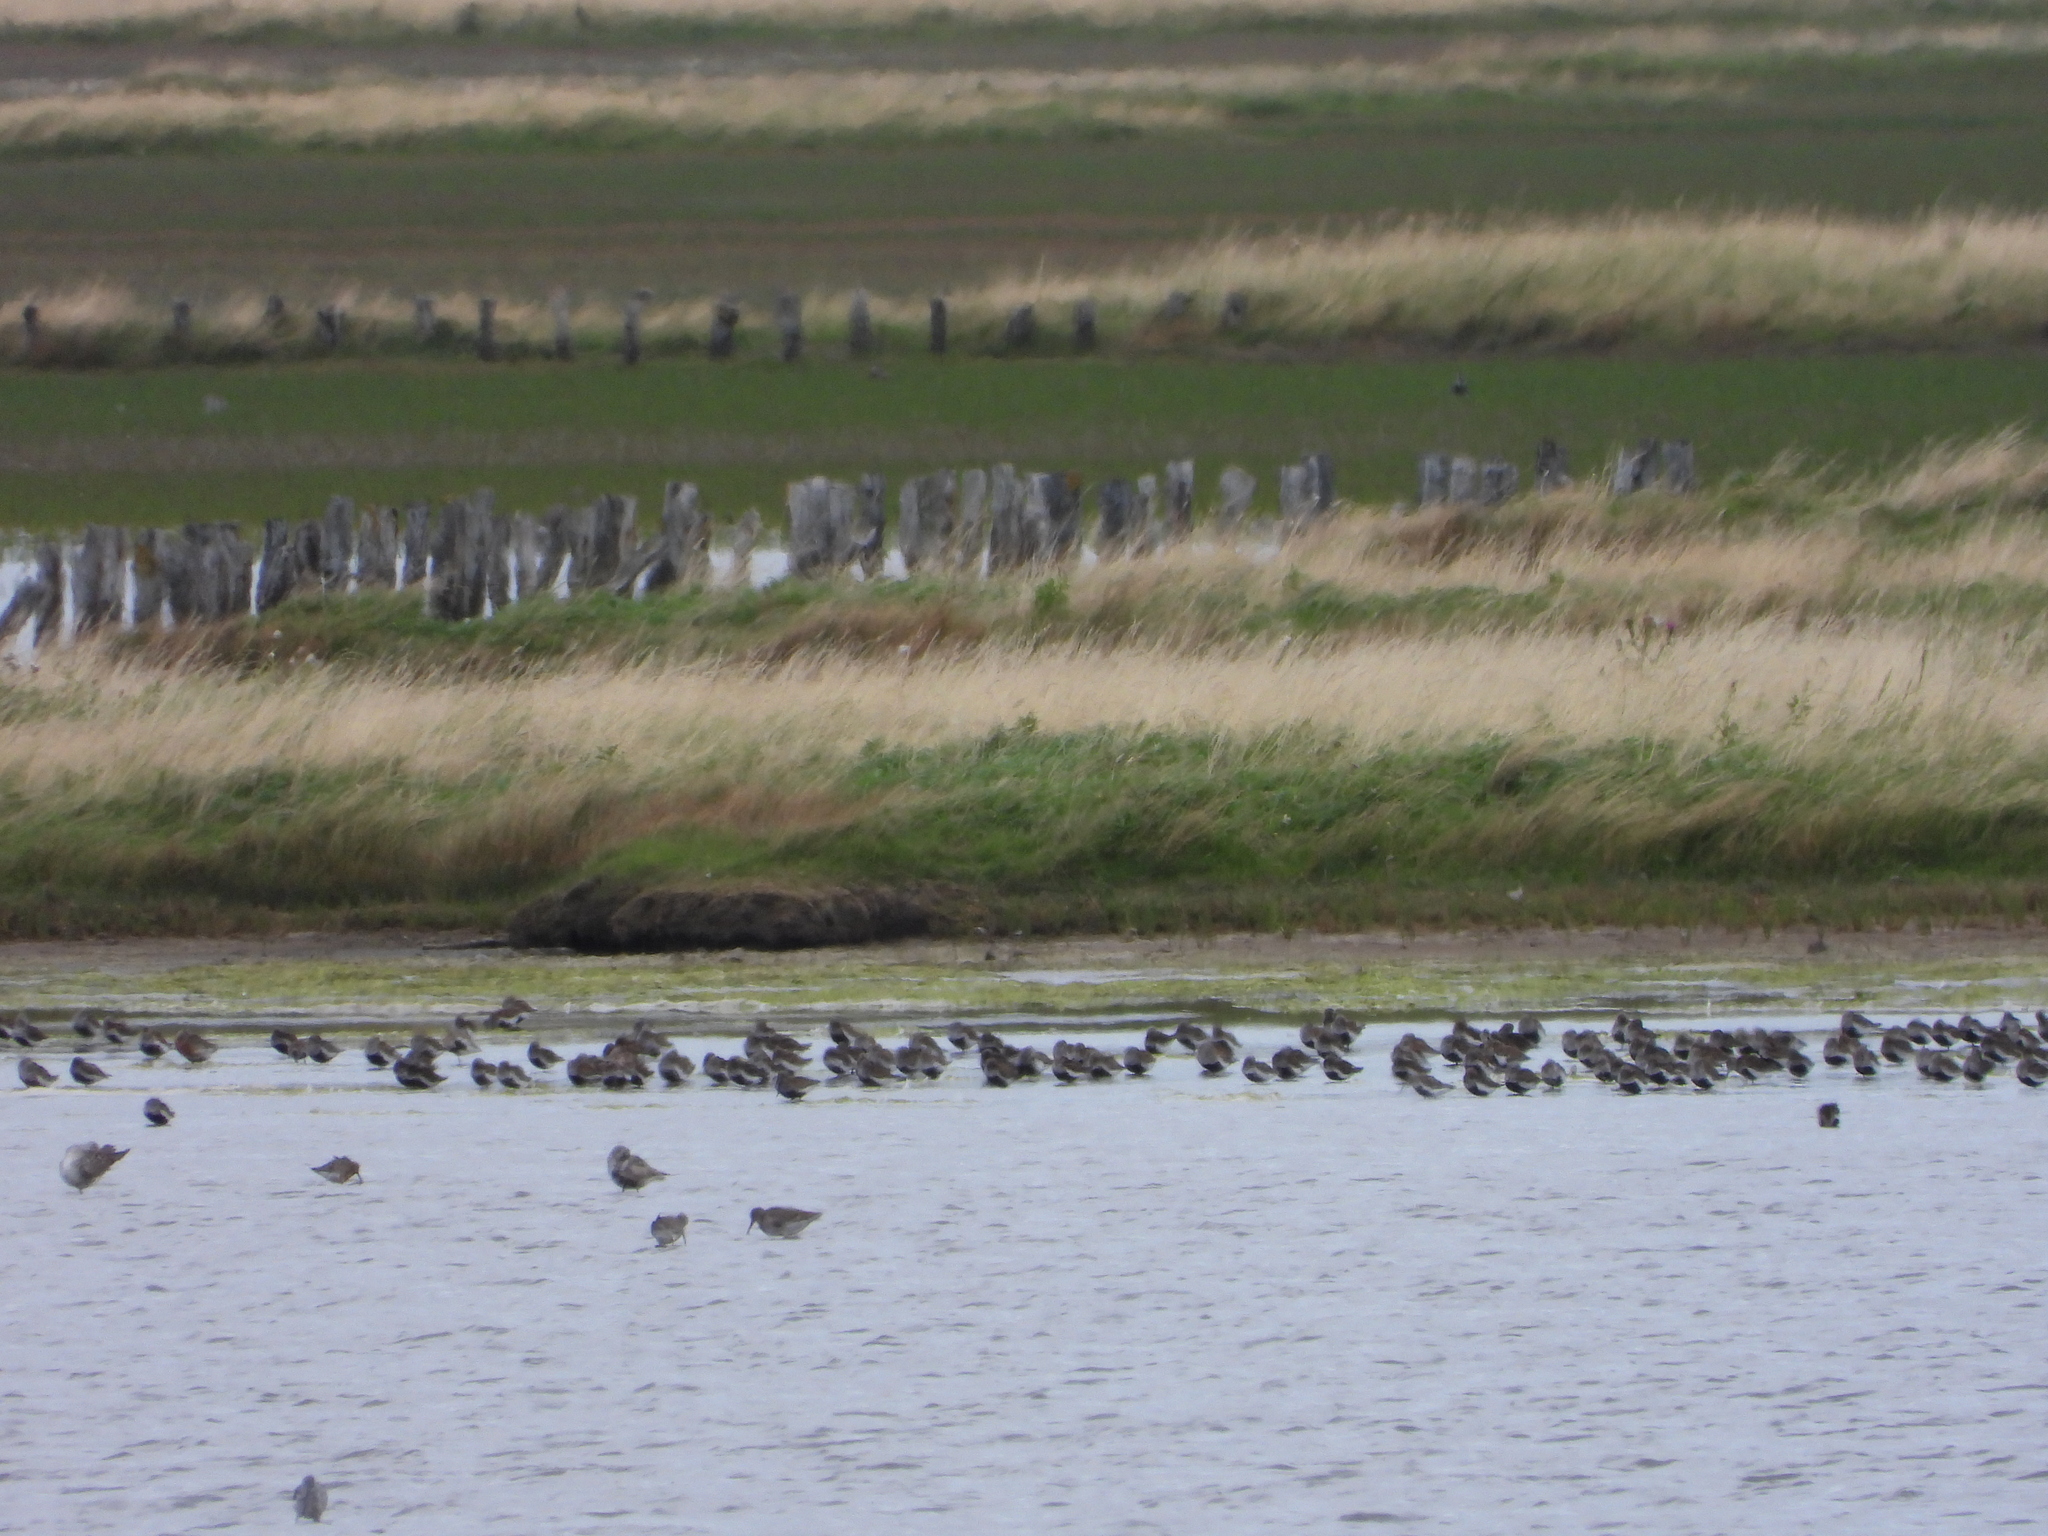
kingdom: Animalia
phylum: Chordata
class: Aves
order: Charadriiformes
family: Scolopacidae
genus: Calidris
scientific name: Calidris alpina
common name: Dunlin
